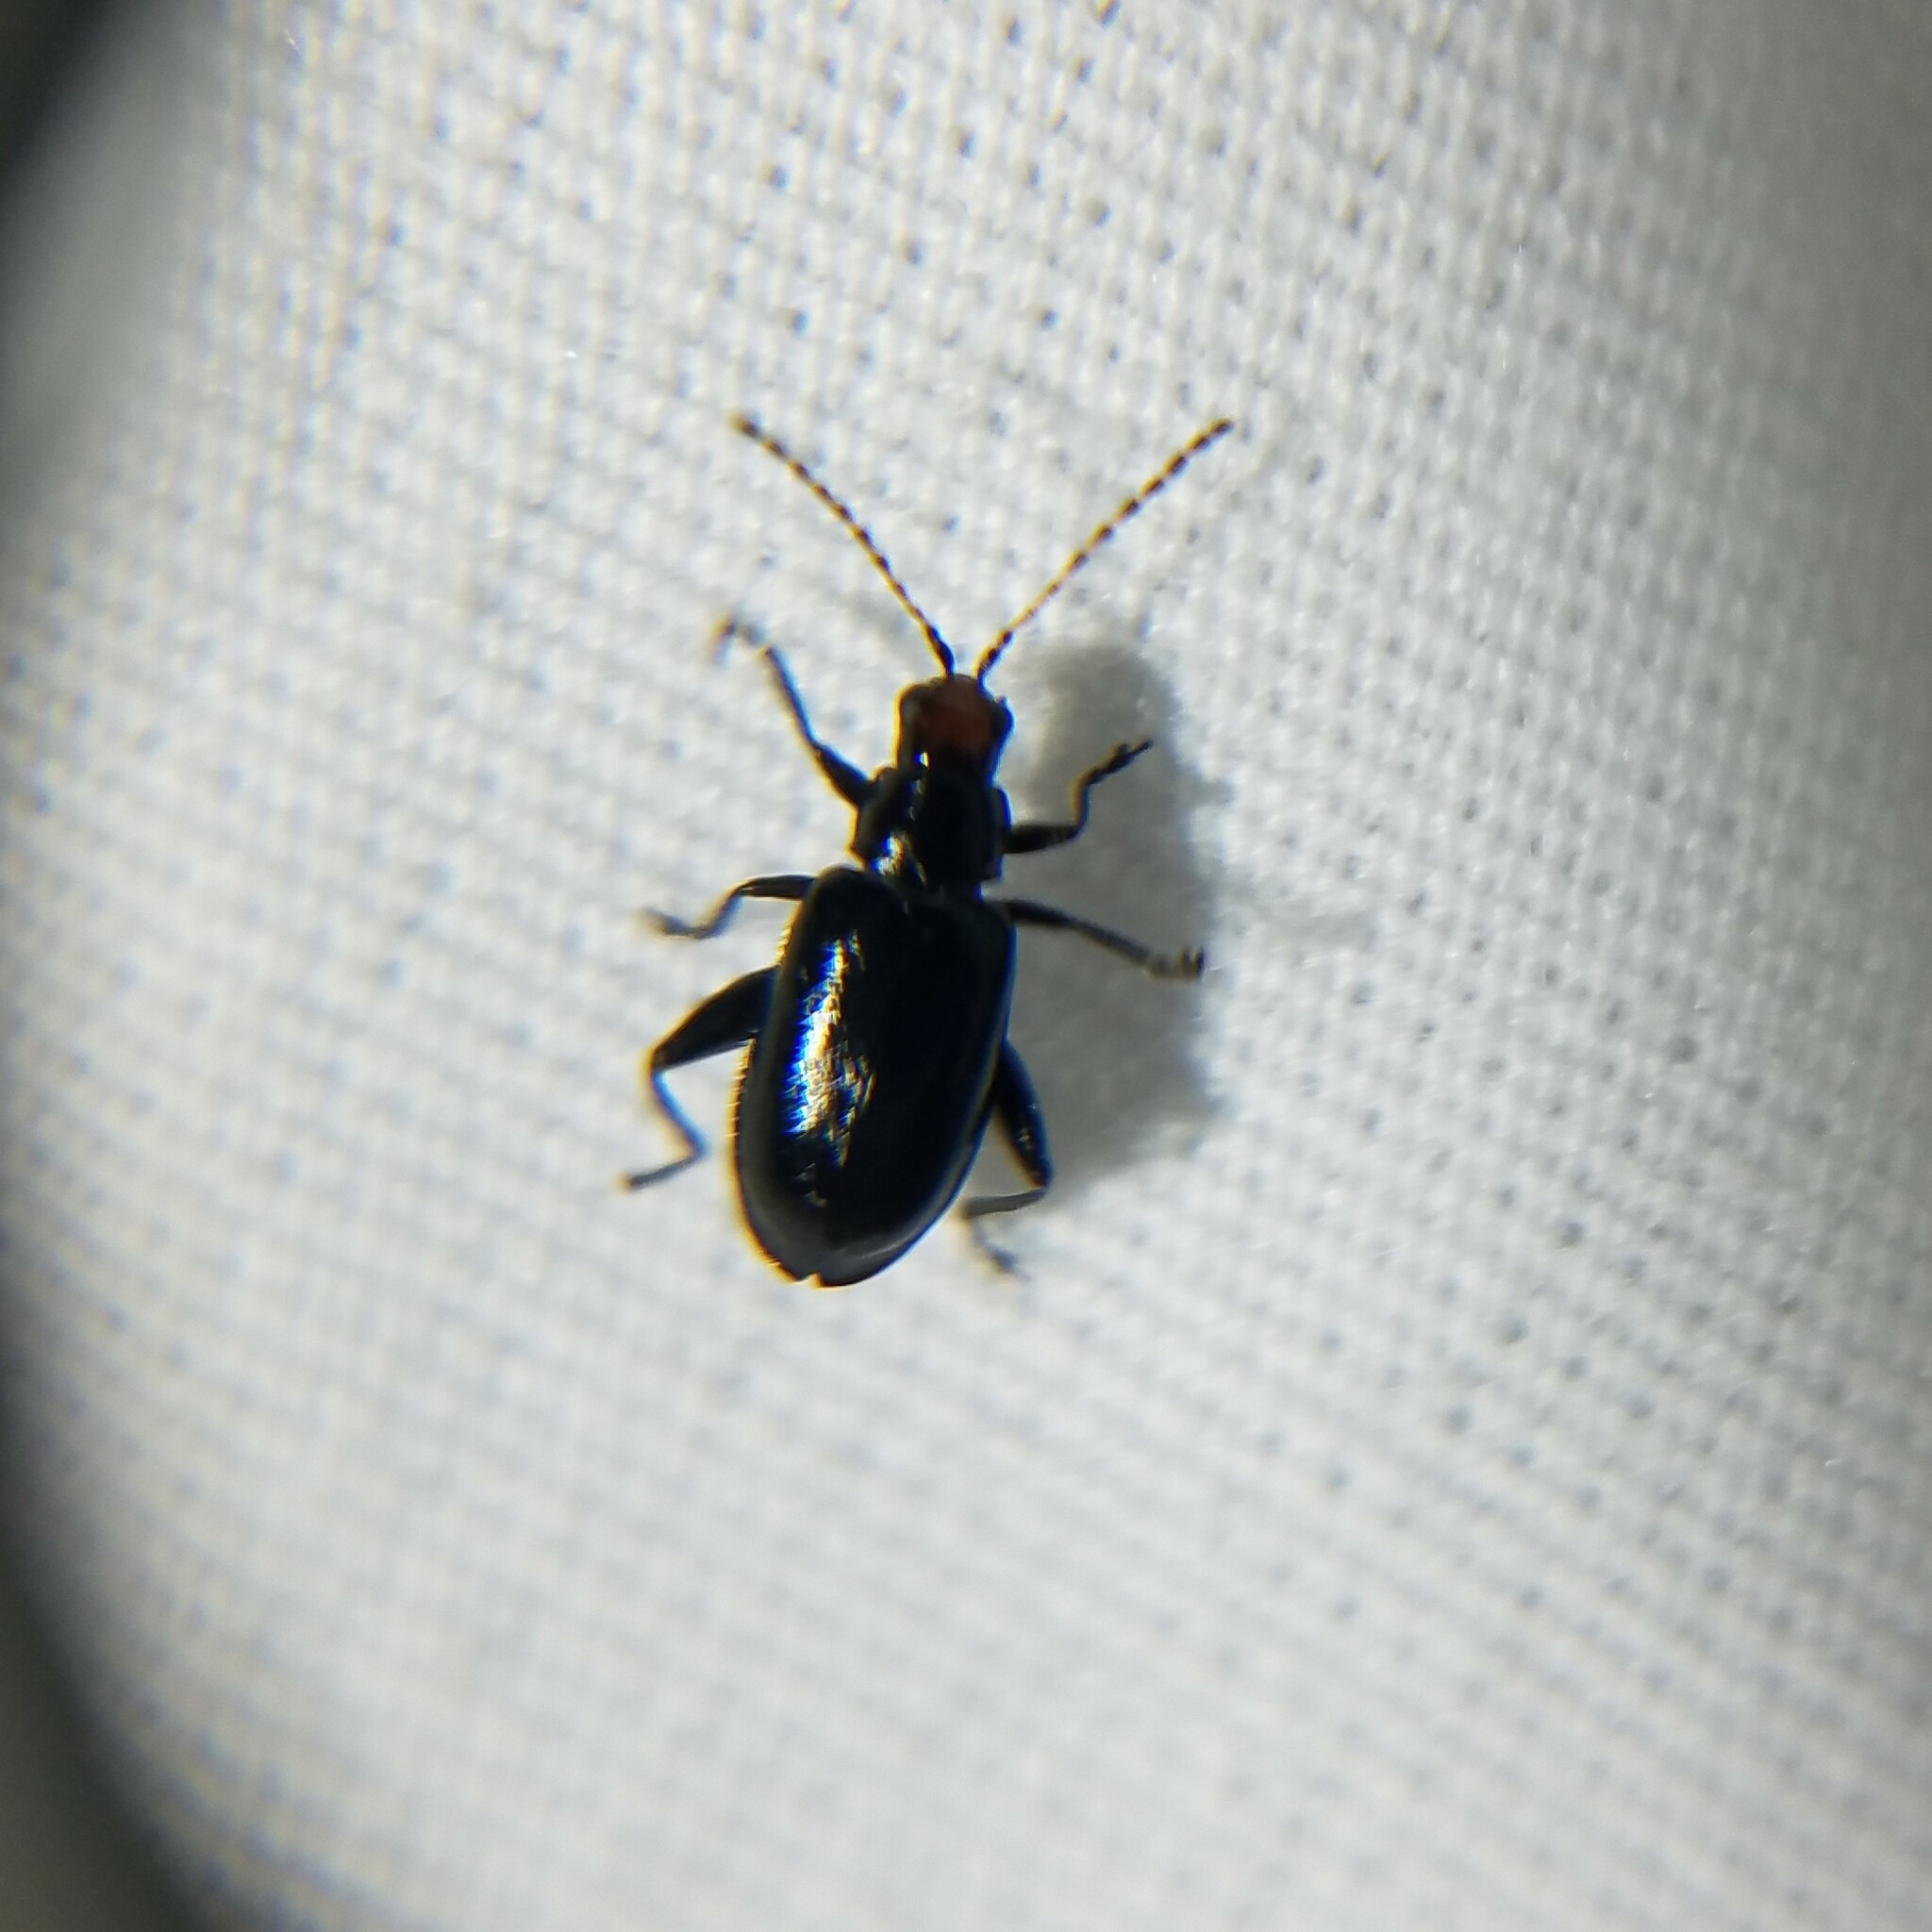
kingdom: Animalia
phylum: Arthropoda
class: Insecta
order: Coleoptera
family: Chrysomelidae
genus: Systena
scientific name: Systena frontalis
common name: Red-headed flea beetle
